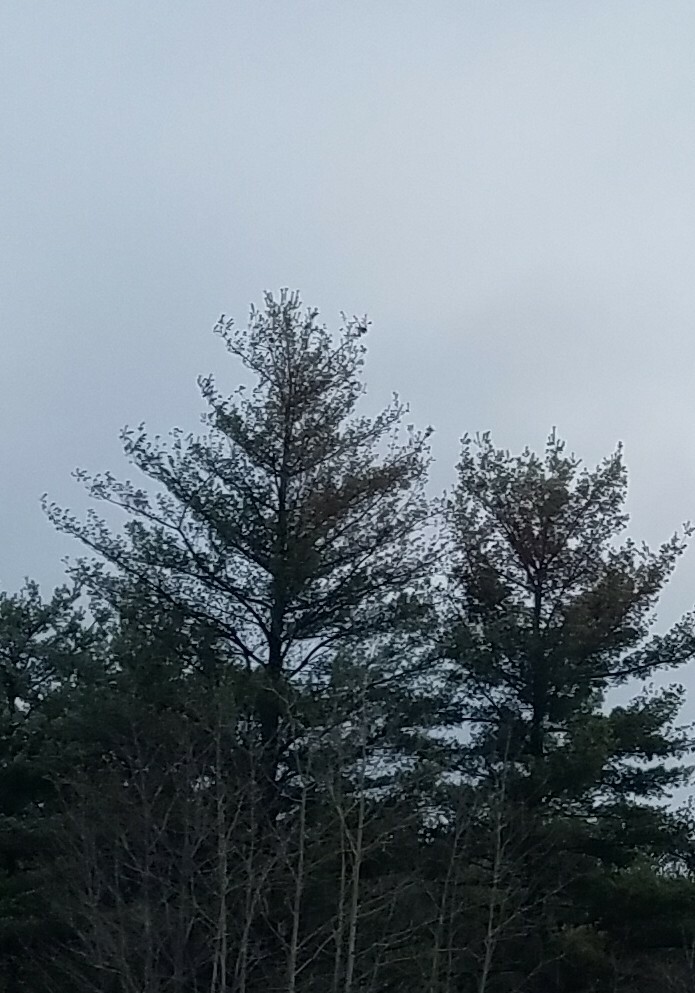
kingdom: Plantae
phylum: Tracheophyta
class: Pinopsida
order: Pinales
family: Pinaceae
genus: Pinus
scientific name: Pinus strobus
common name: Weymouth pine
